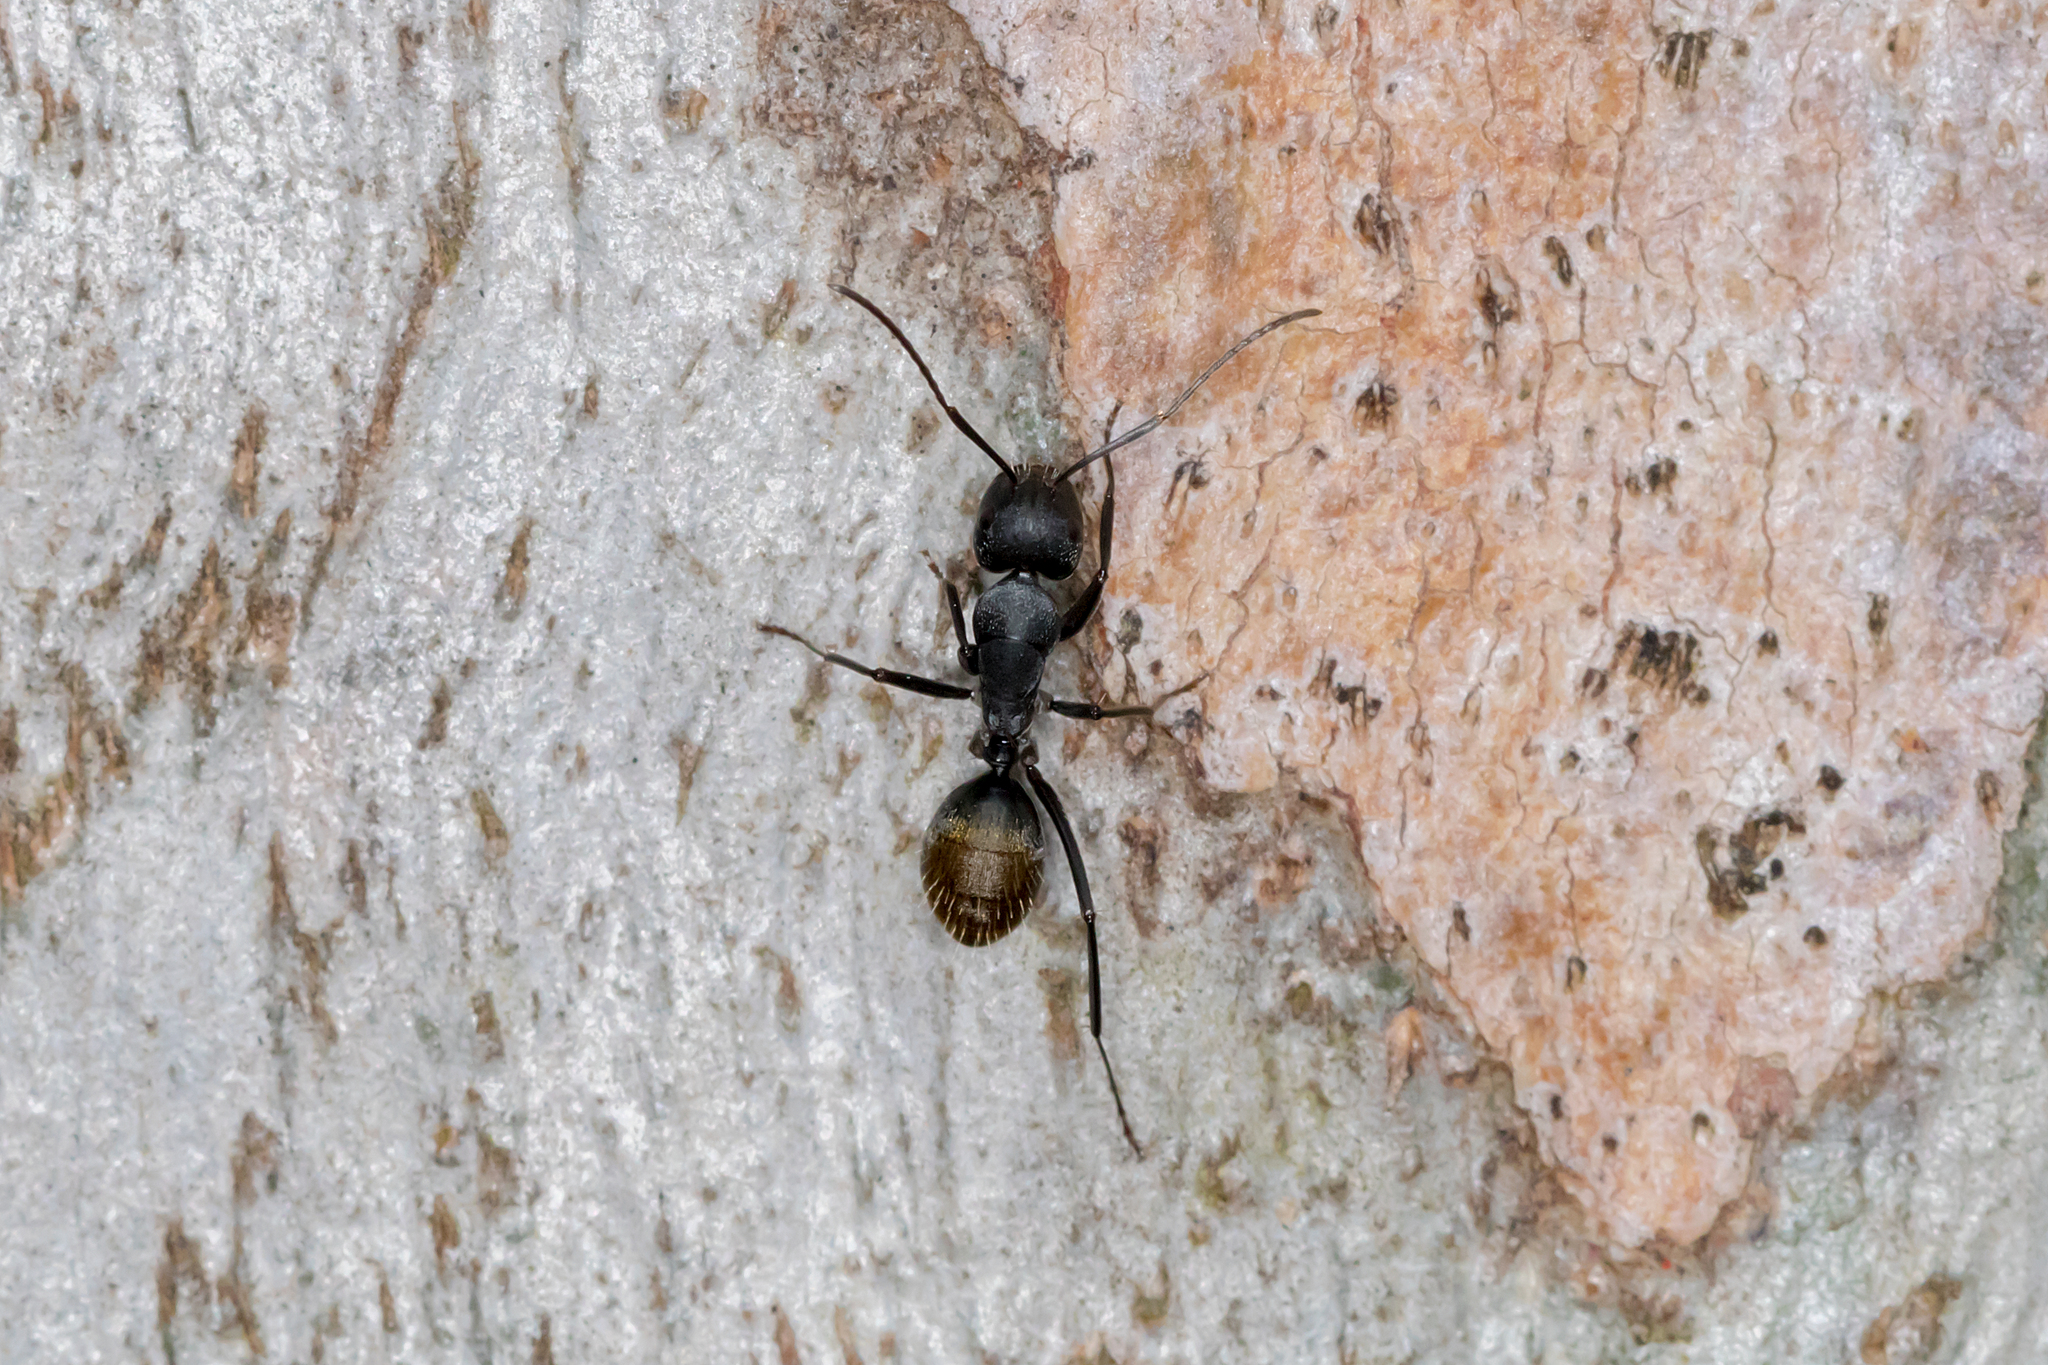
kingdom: Animalia
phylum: Arthropoda
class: Insecta
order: Hymenoptera
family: Formicidae
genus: Camponotus
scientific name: Camponotus aeneopilosus
